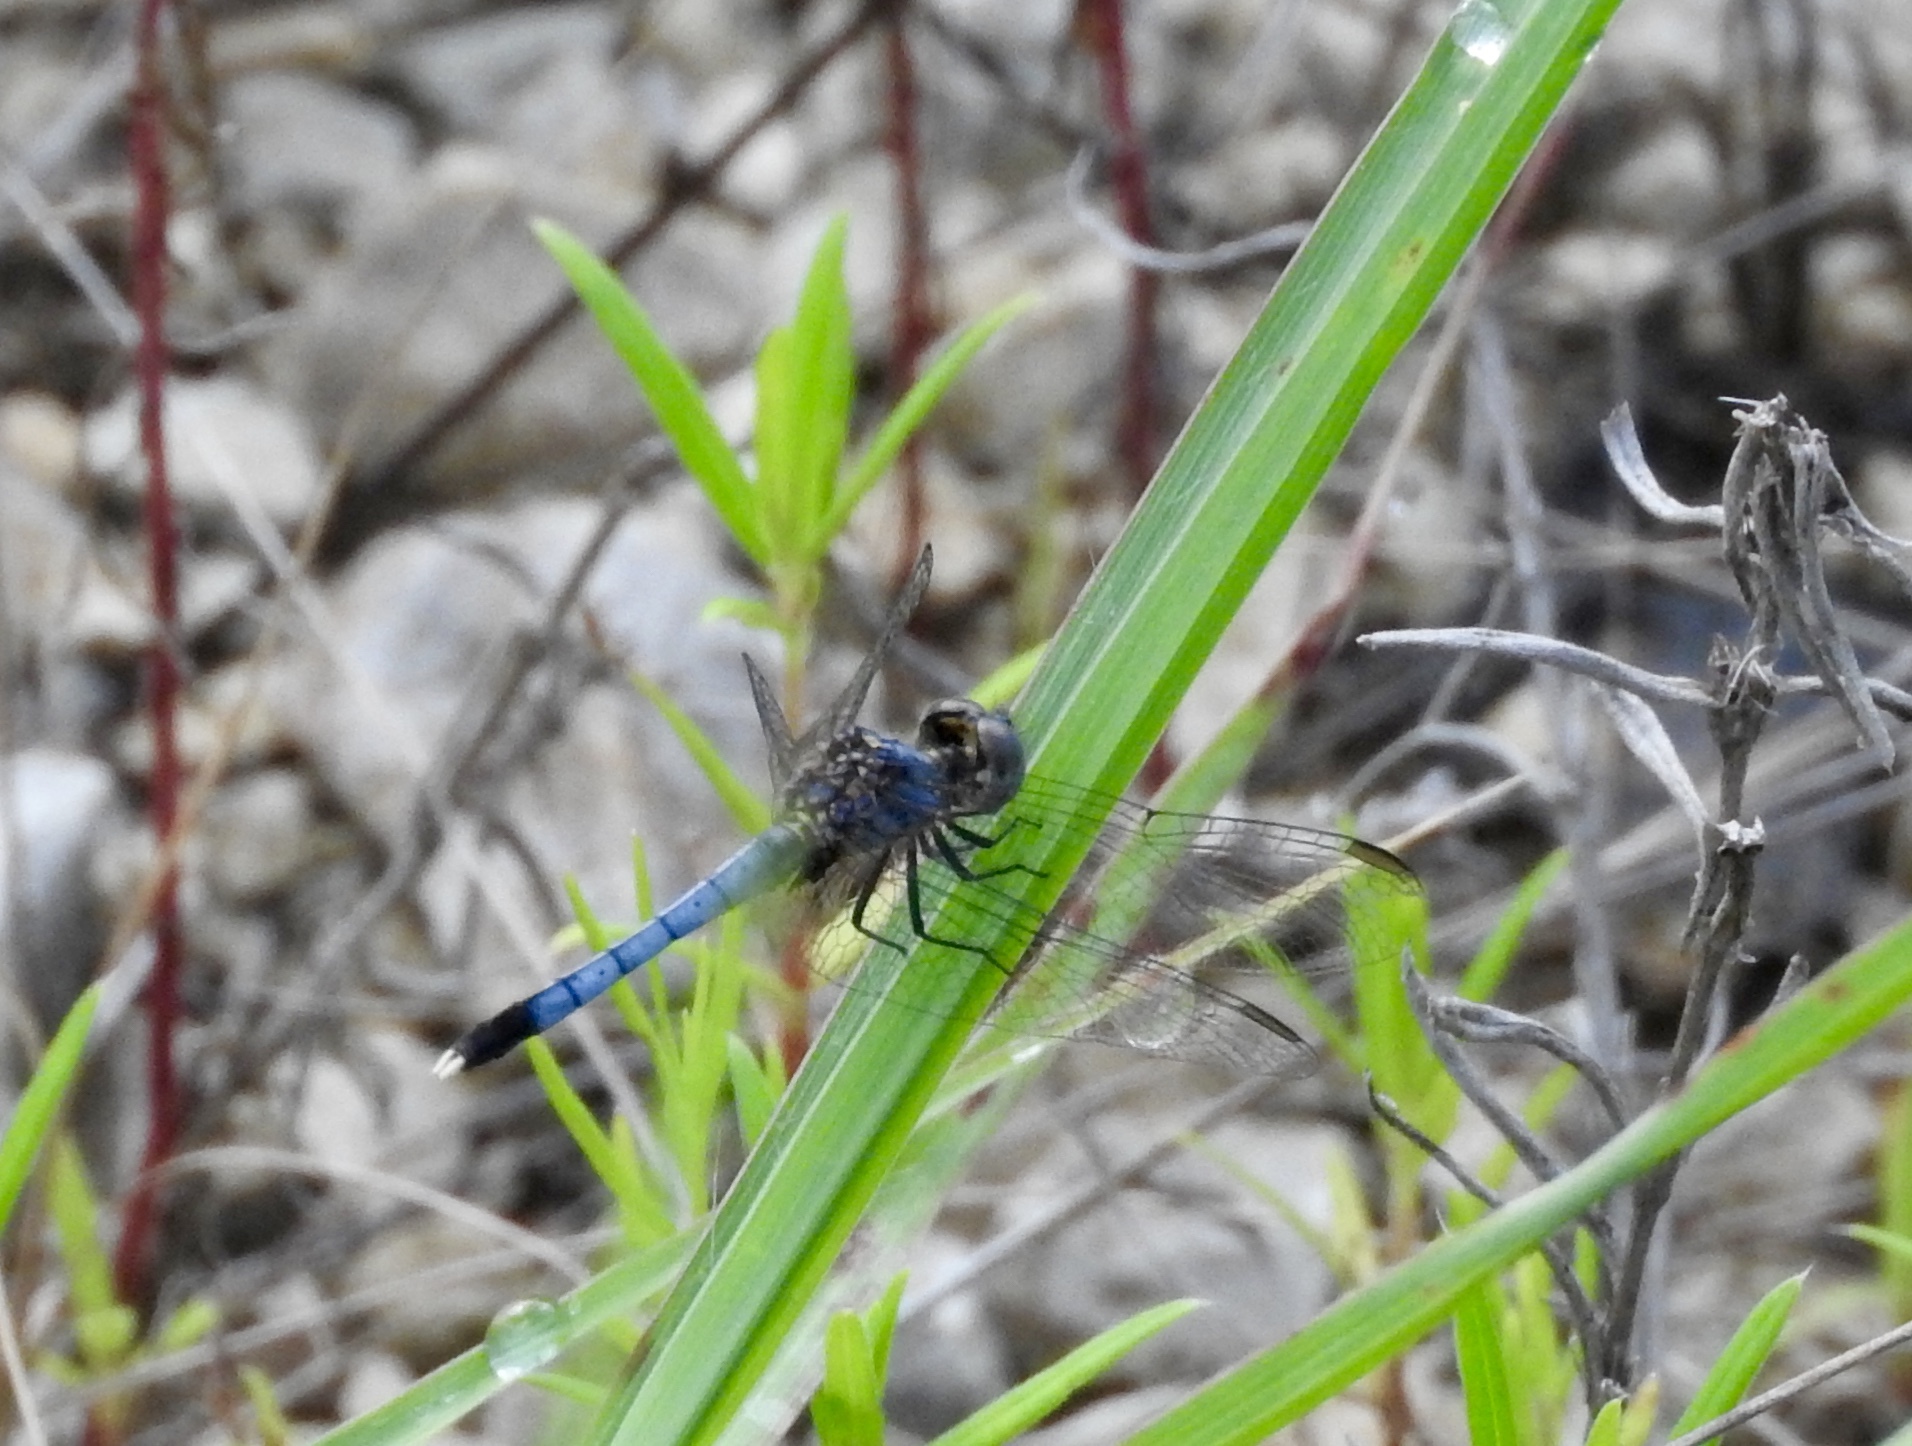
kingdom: Animalia
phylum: Arthropoda
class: Insecta
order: Odonata
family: Libellulidae
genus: Erythrodiplax
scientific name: Erythrodiplax minuscula
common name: Little blue dragonlet
